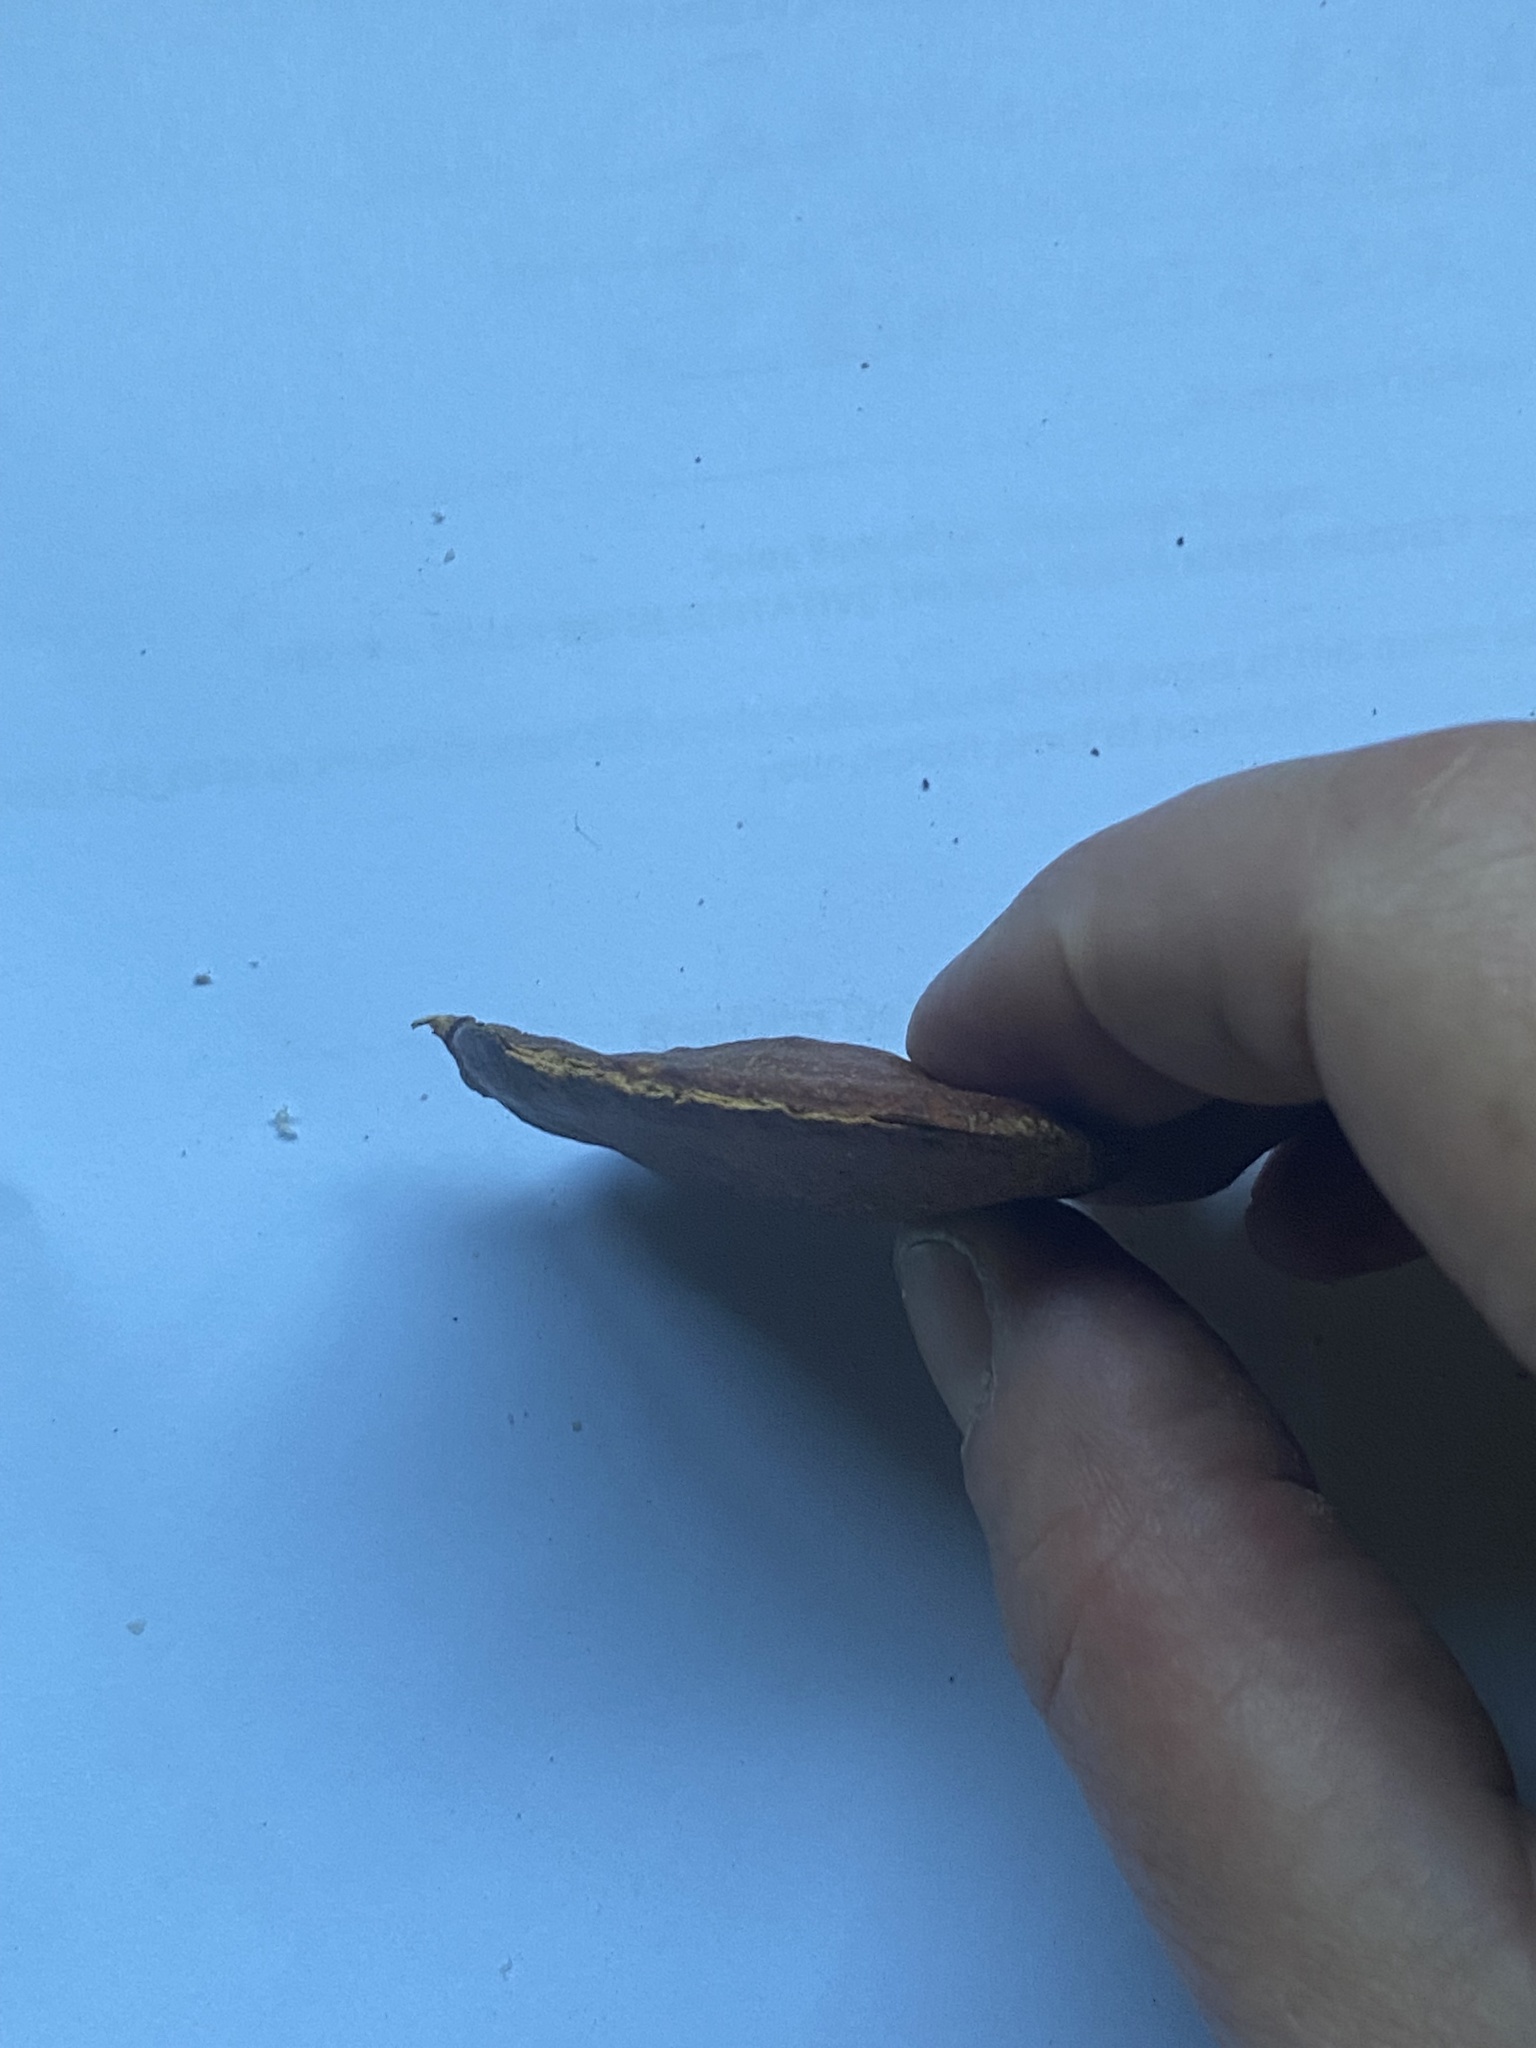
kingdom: Plantae
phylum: Tracheophyta
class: Magnoliopsida
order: Lamiales
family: Bignoniaceae
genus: Jacaranda
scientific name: Jacaranda mimosifolia
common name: Black poui
